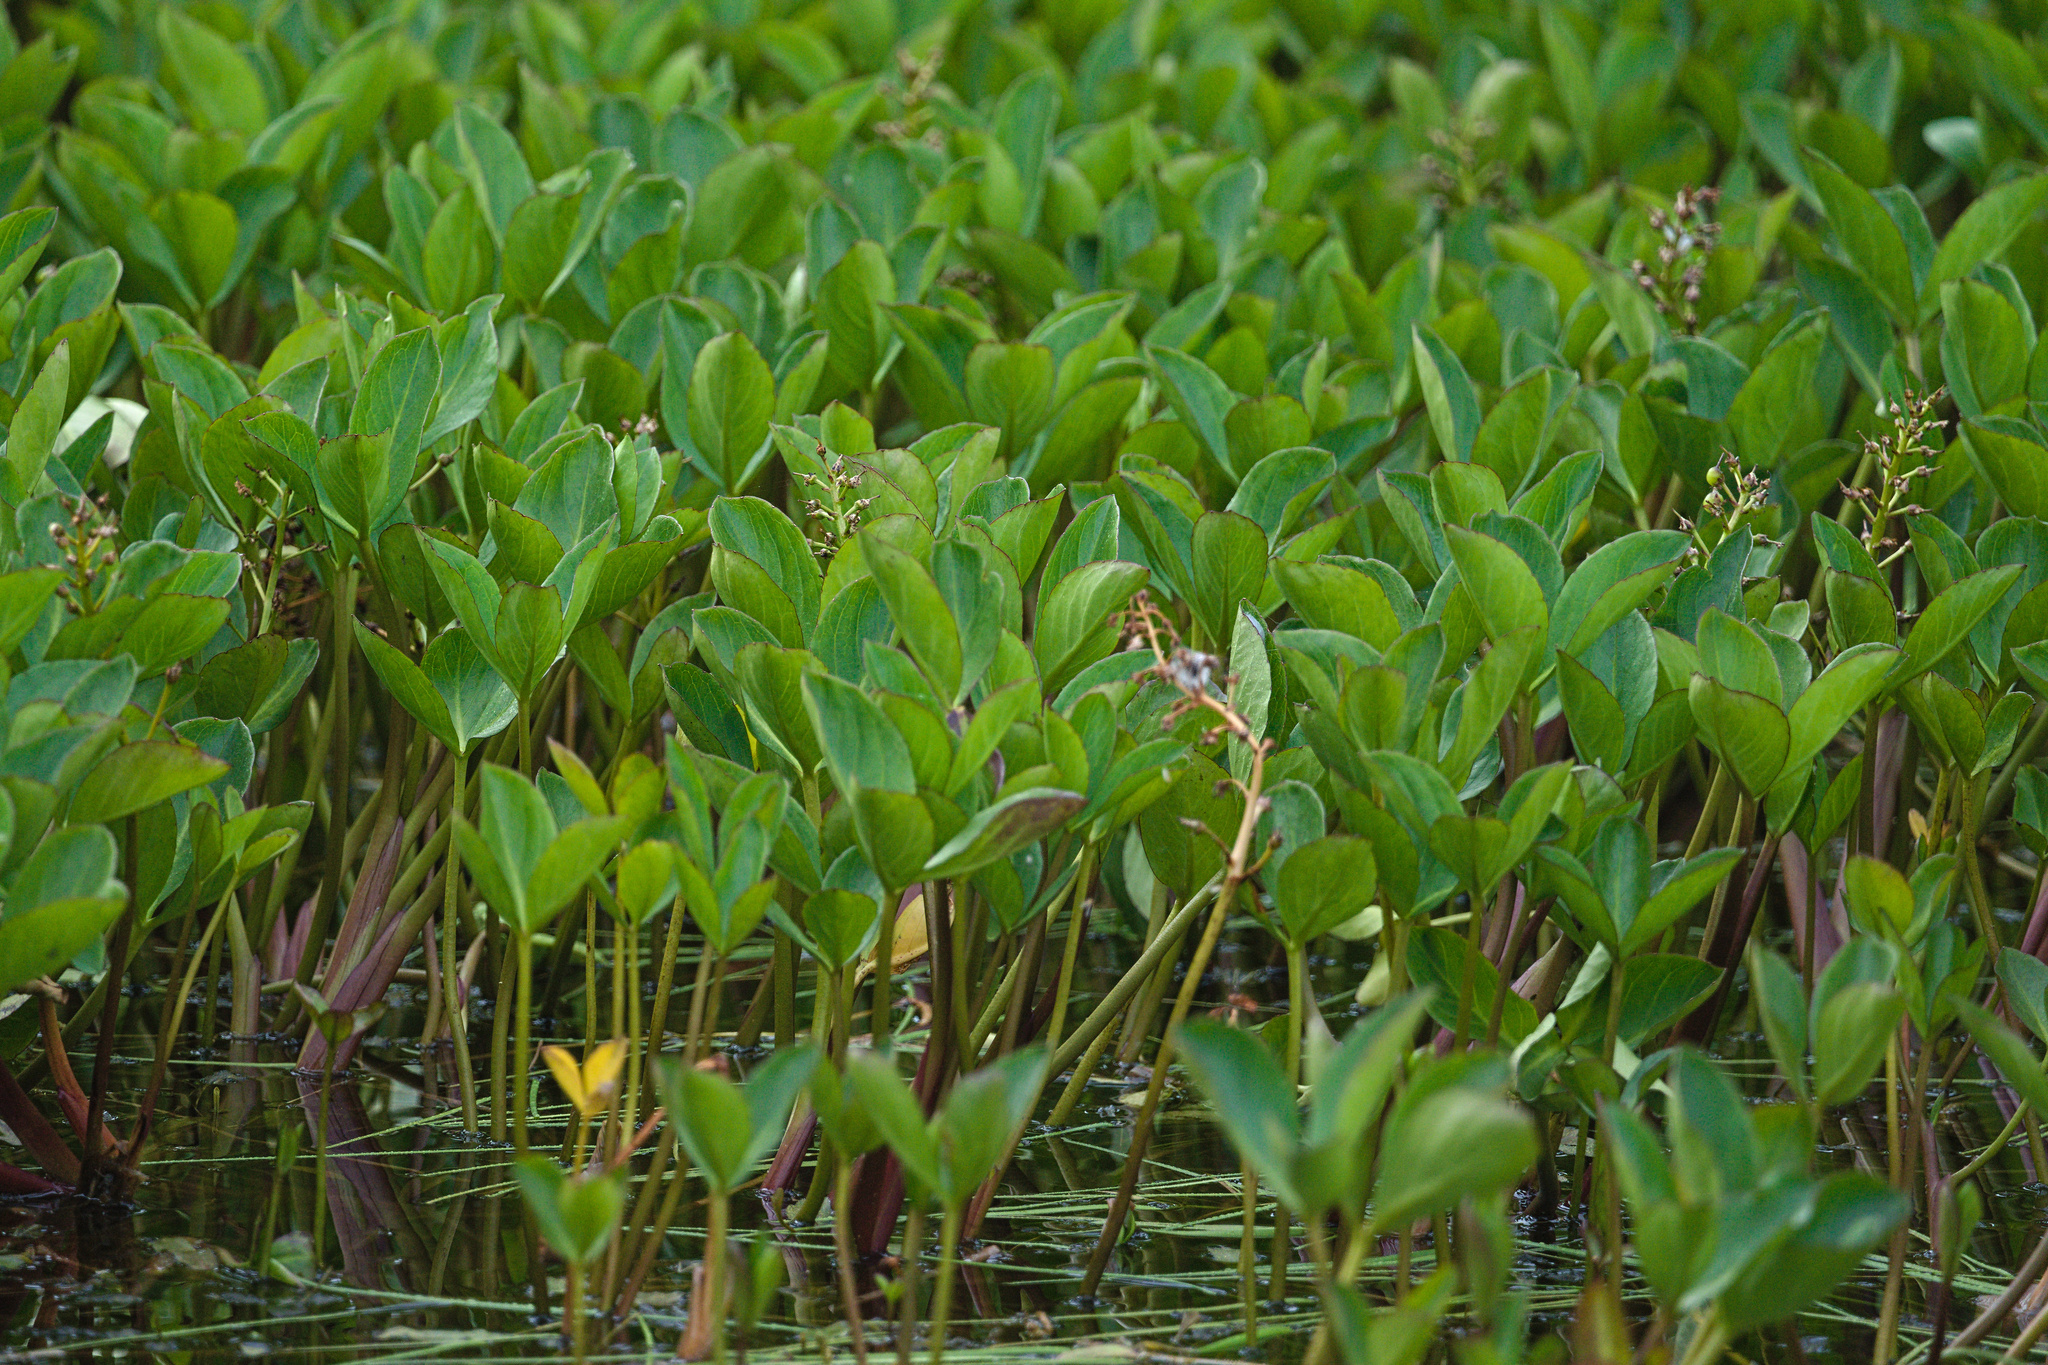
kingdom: Plantae
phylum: Tracheophyta
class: Magnoliopsida
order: Asterales
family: Menyanthaceae
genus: Menyanthes
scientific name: Menyanthes trifoliata
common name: Bogbean
